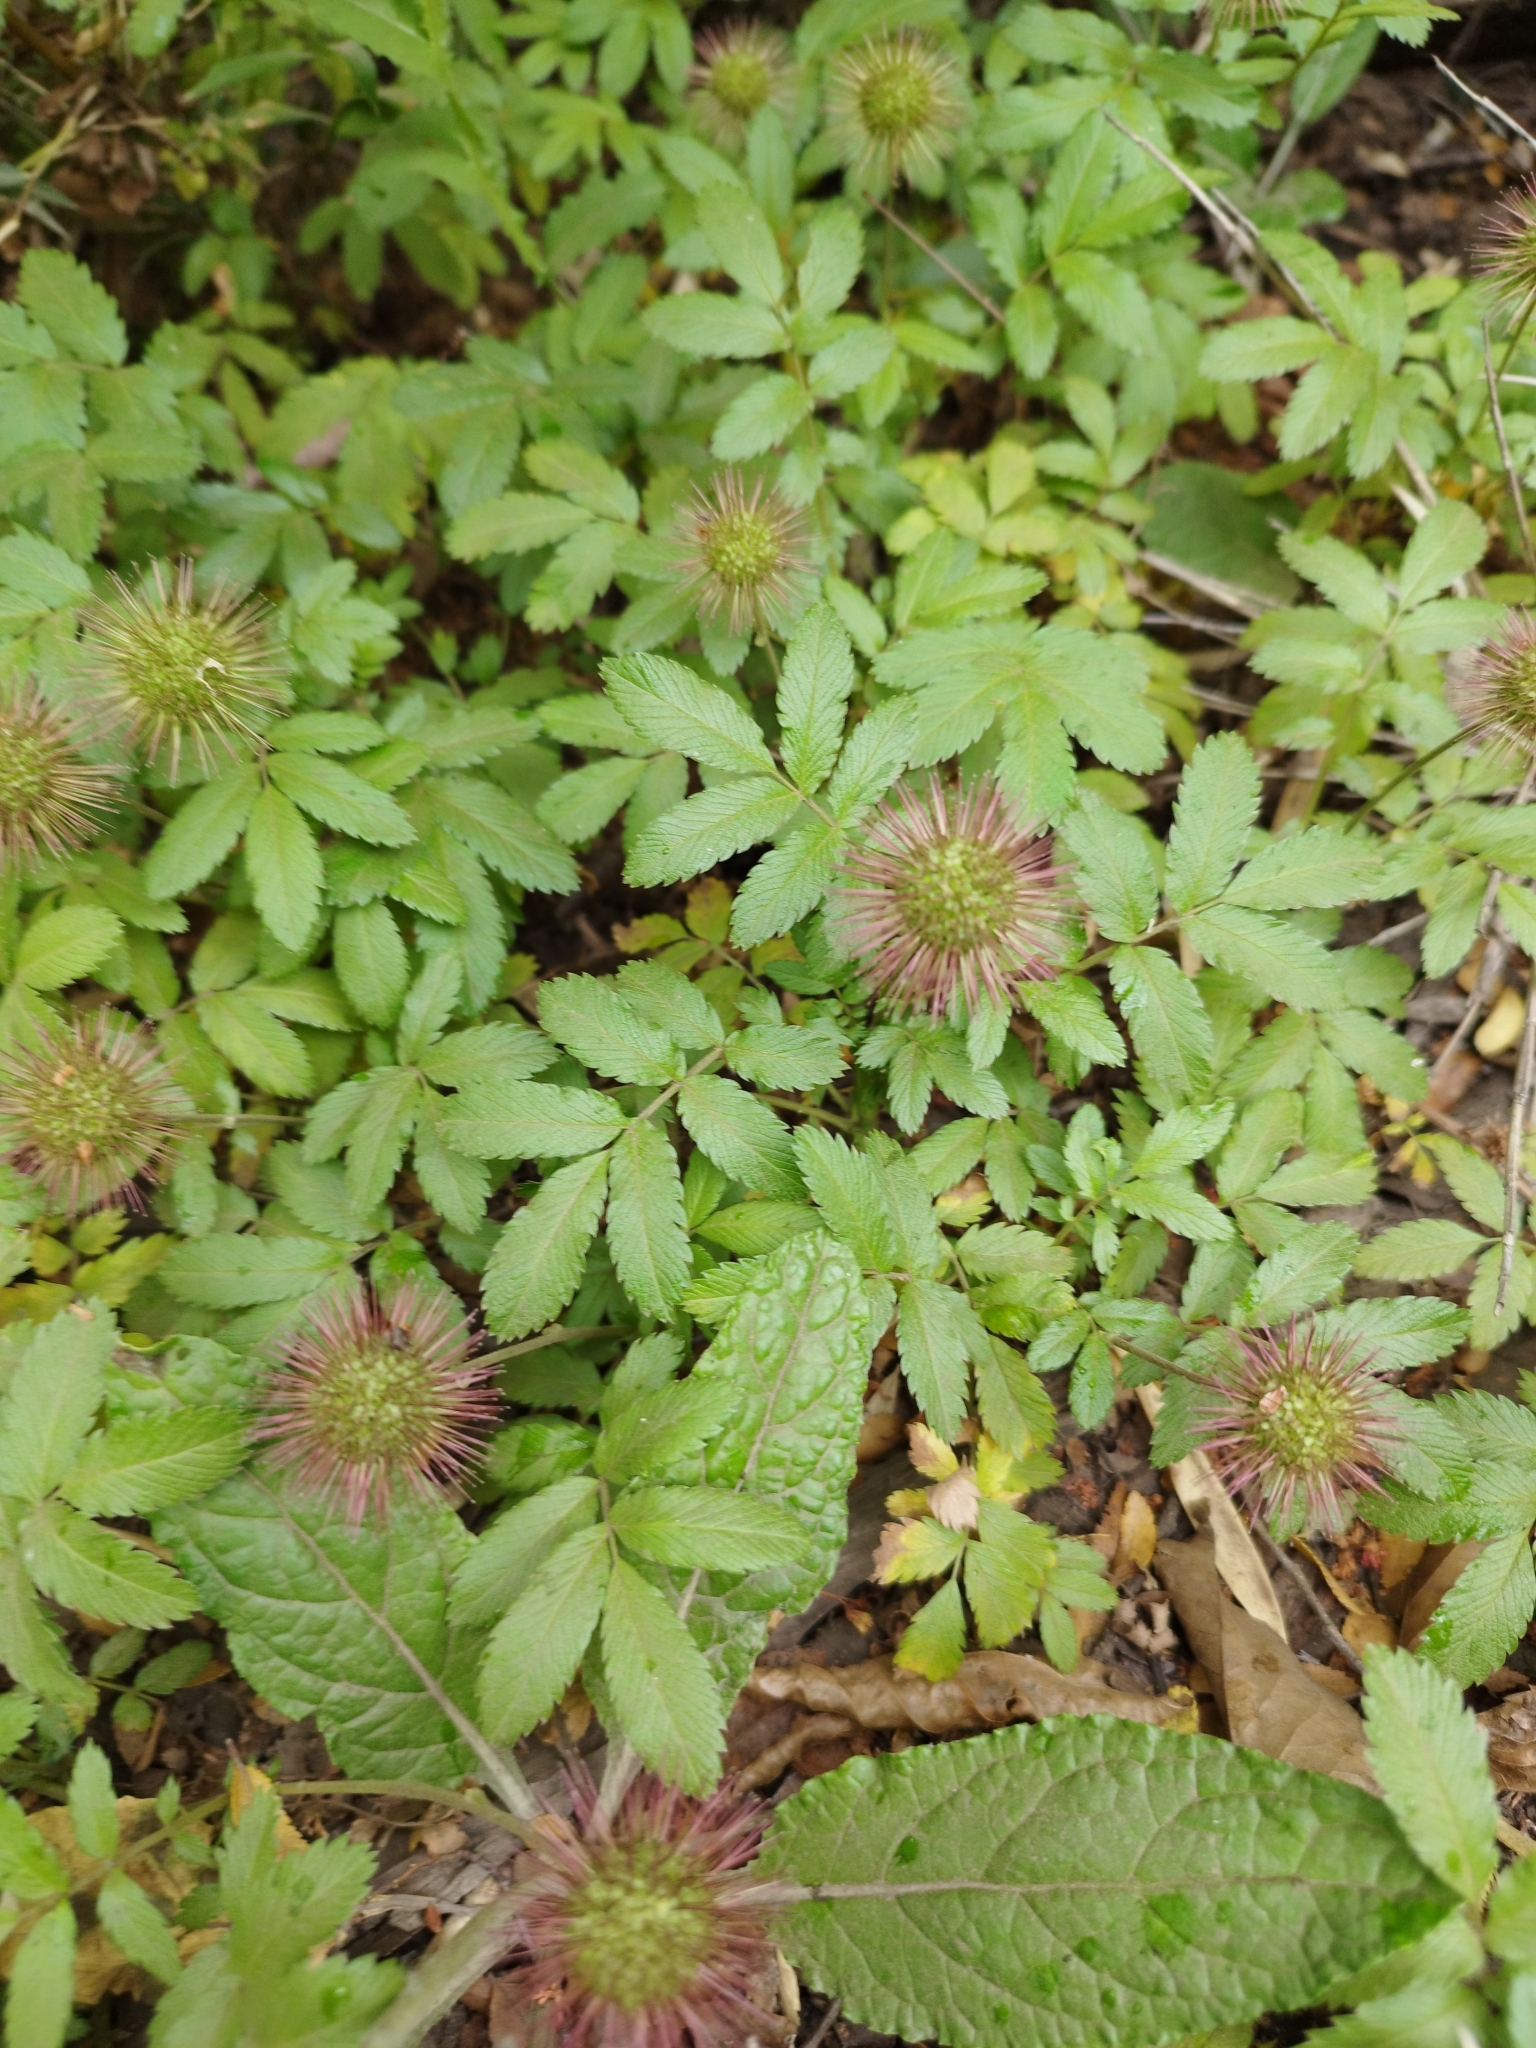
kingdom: Plantae
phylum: Tracheophyta
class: Magnoliopsida
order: Rosales
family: Rosaceae
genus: Acaena
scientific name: Acaena ovalifolia
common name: Two-spined acaena
